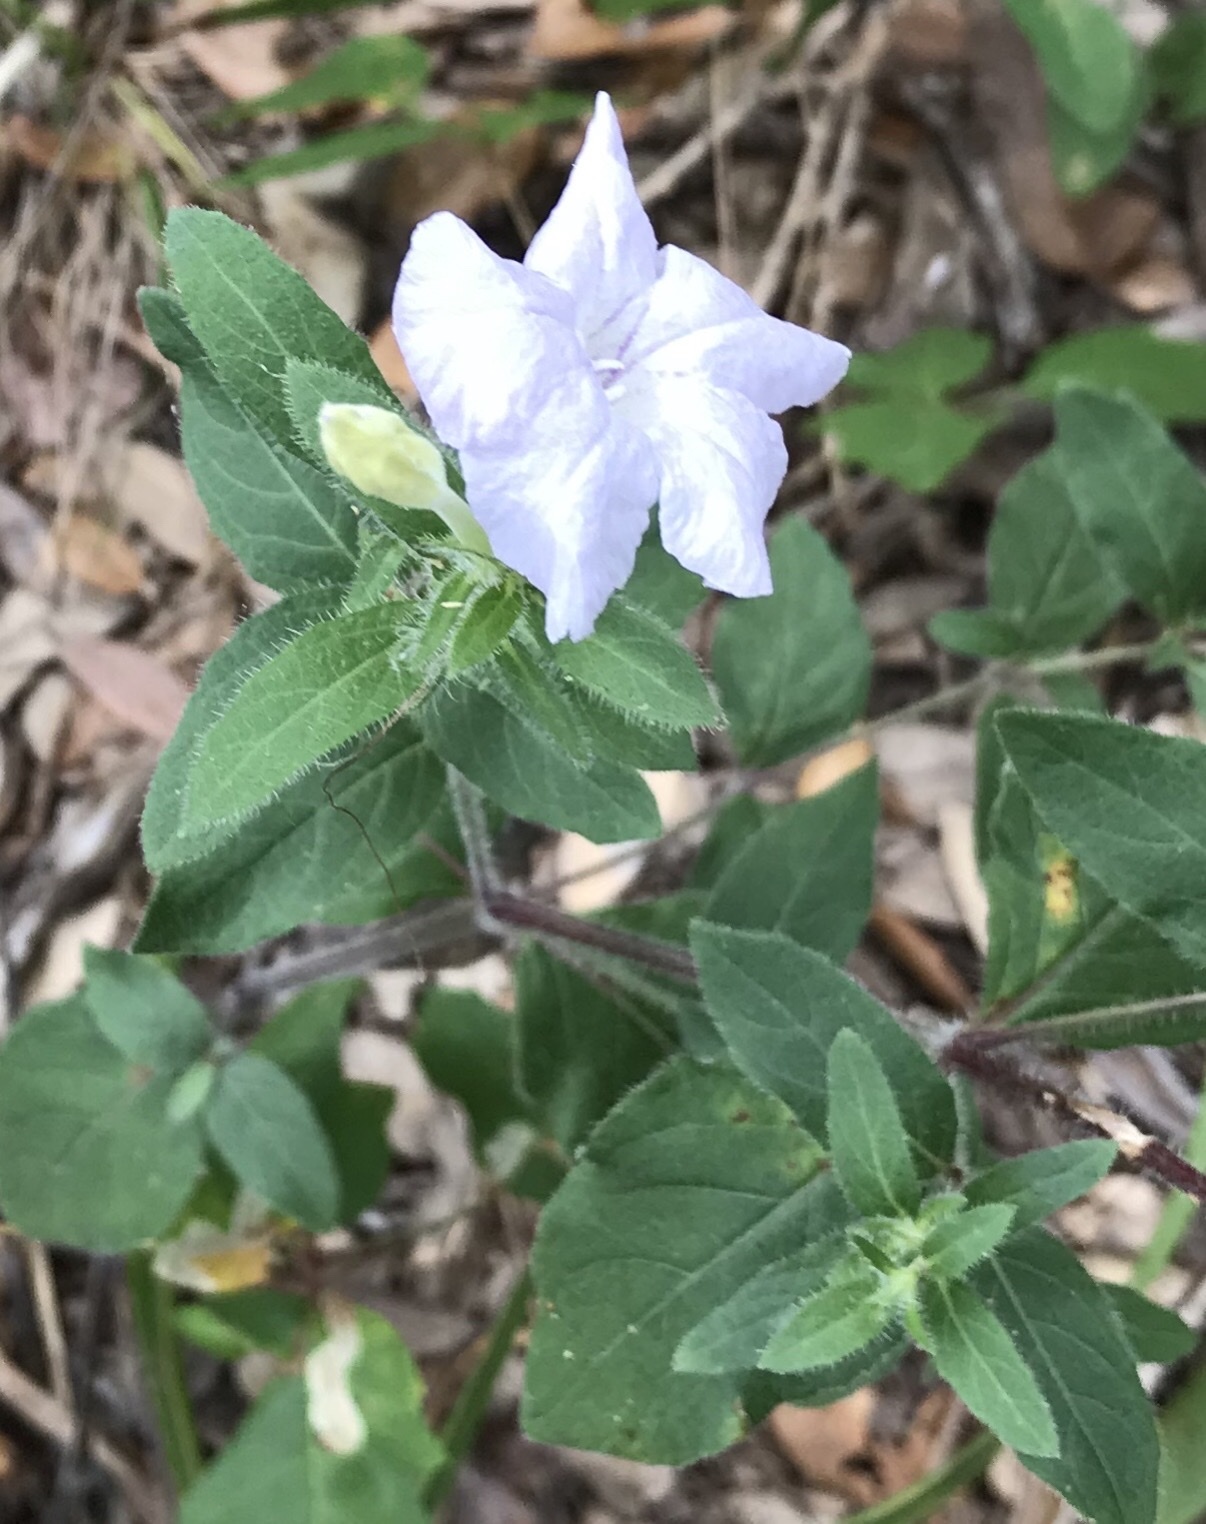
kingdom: Plantae
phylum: Tracheophyta
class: Magnoliopsida
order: Lamiales
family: Acanthaceae
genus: Ruellia
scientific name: Ruellia humilis
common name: Fringe-leaf ruellia
